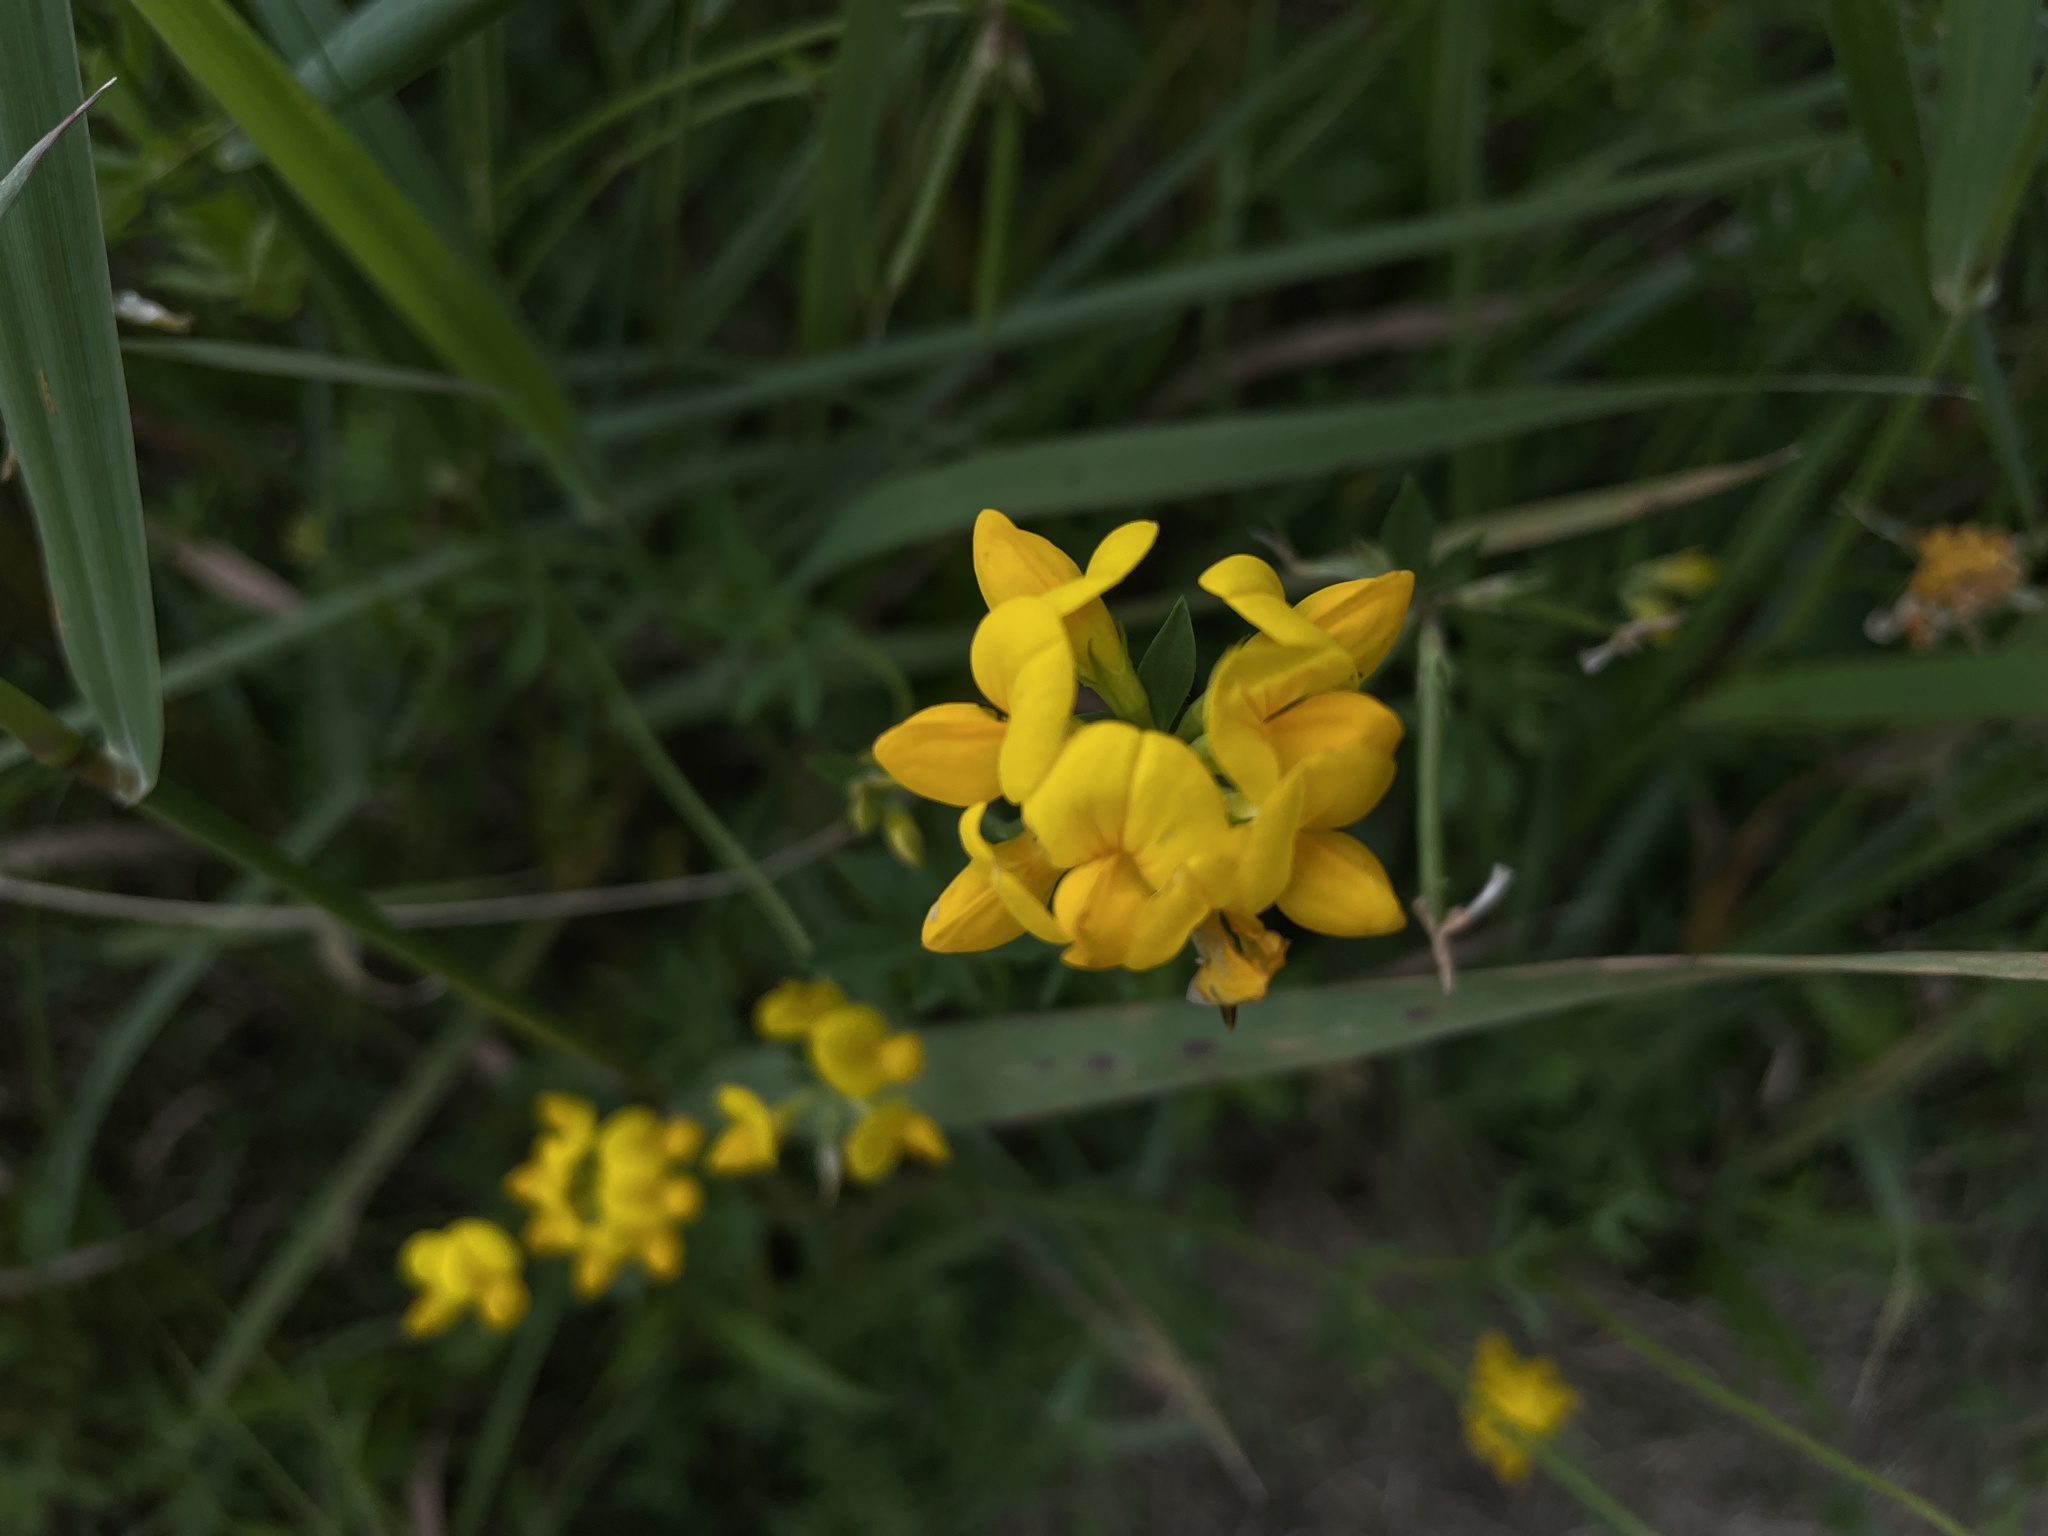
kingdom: Plantae
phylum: Tracheophyta
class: Magnoliopsida
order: Fabales
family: Fabaceae
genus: Lotus
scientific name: Lotus corniculatus
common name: Common bird's-foot-trefoil
